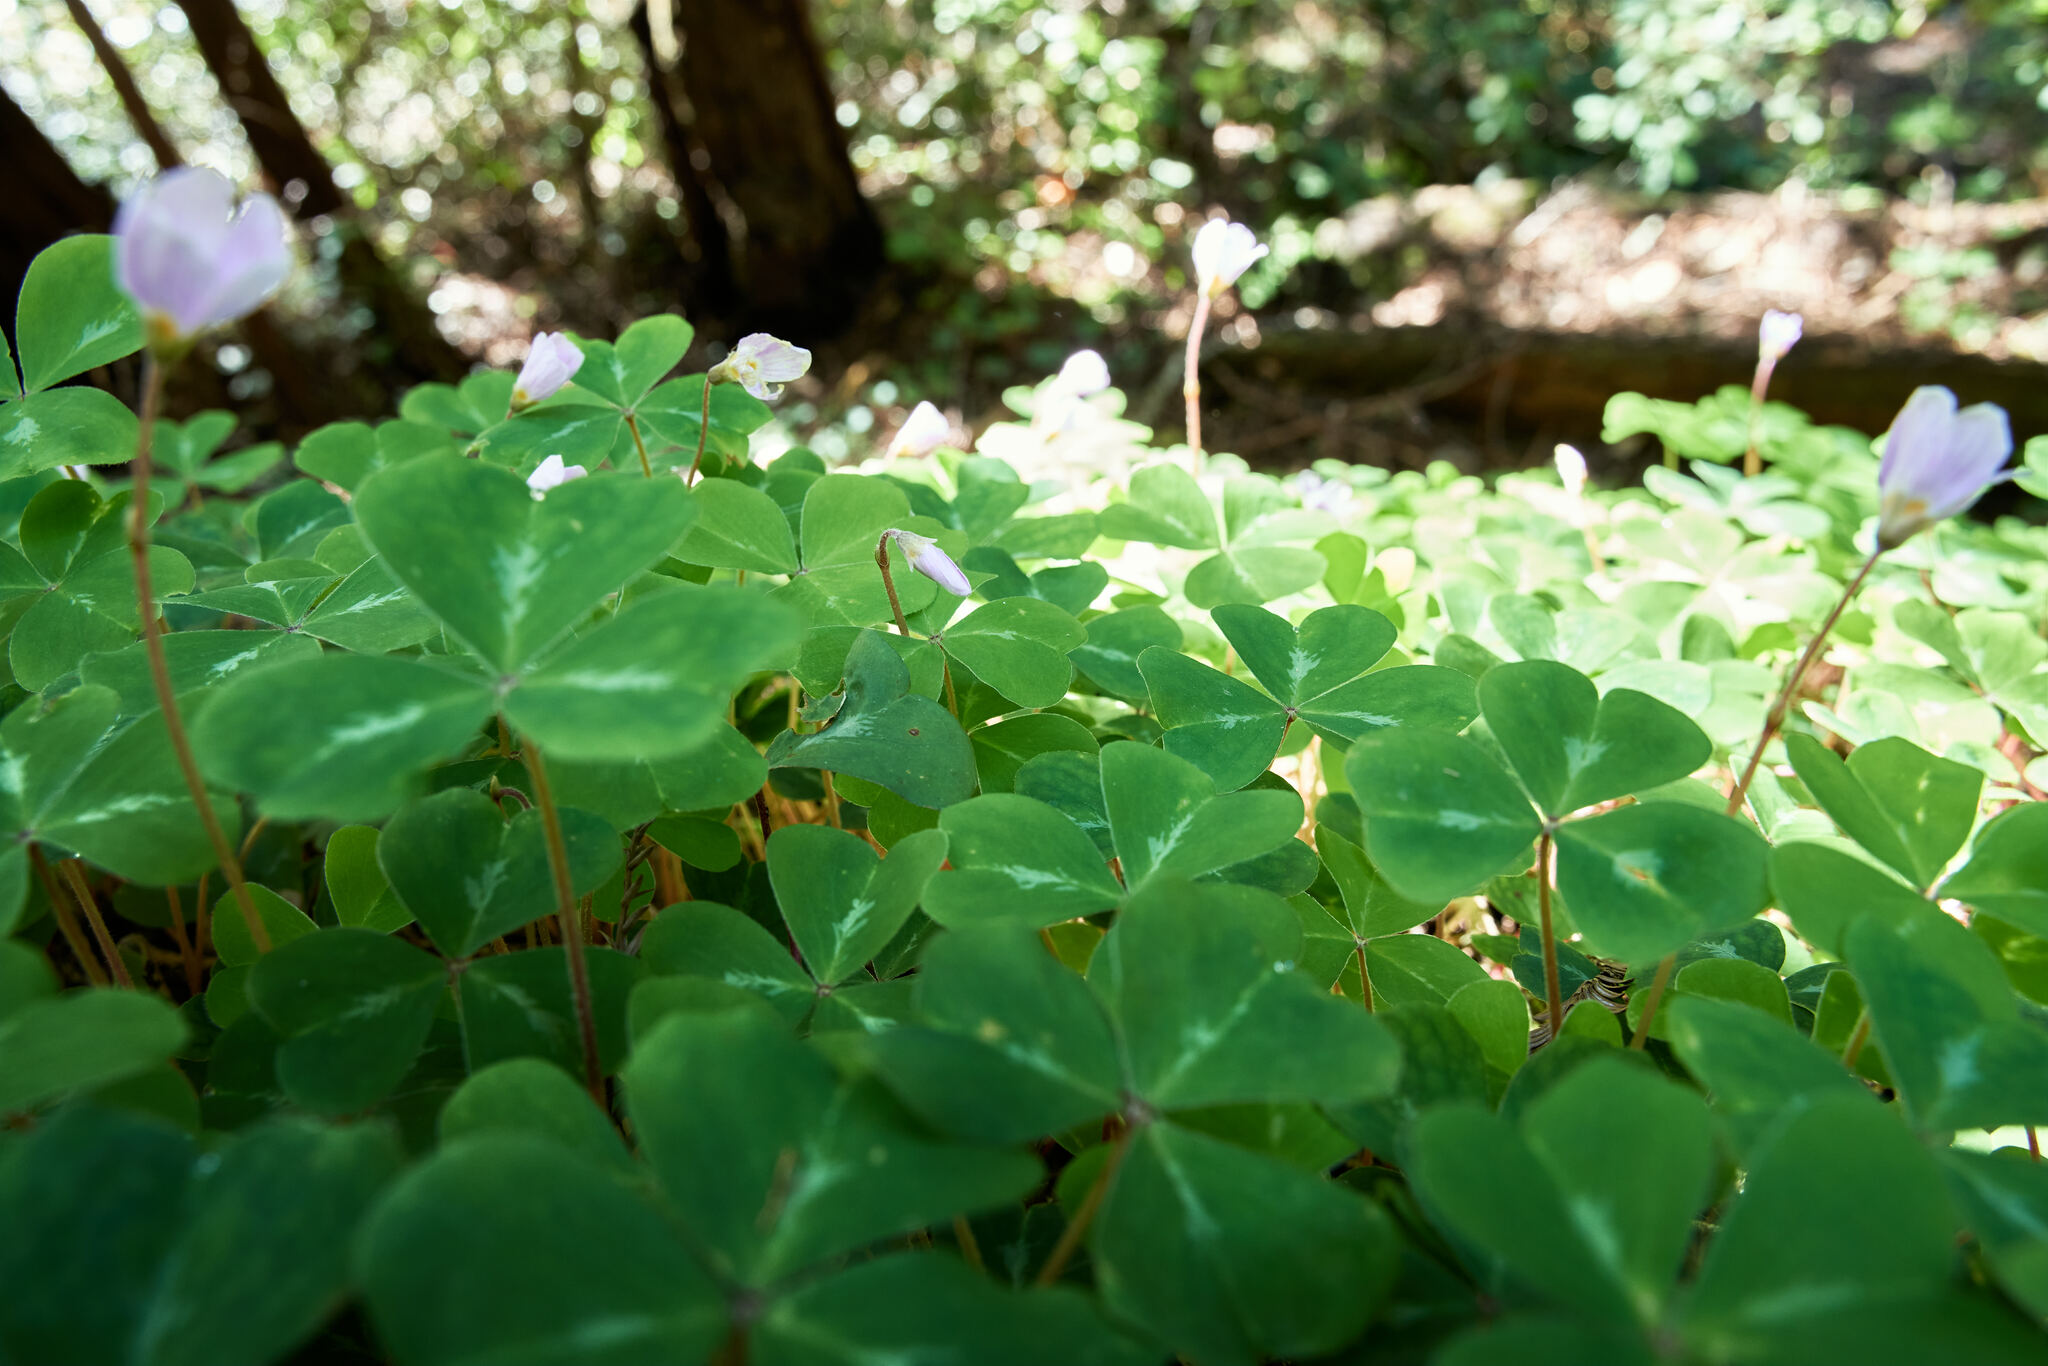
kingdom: Plantae
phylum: Tracheophyta
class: Magnoliopsida
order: Oxalidales
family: Oxalidaceae
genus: Oxalis
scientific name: Oxalis oregana
